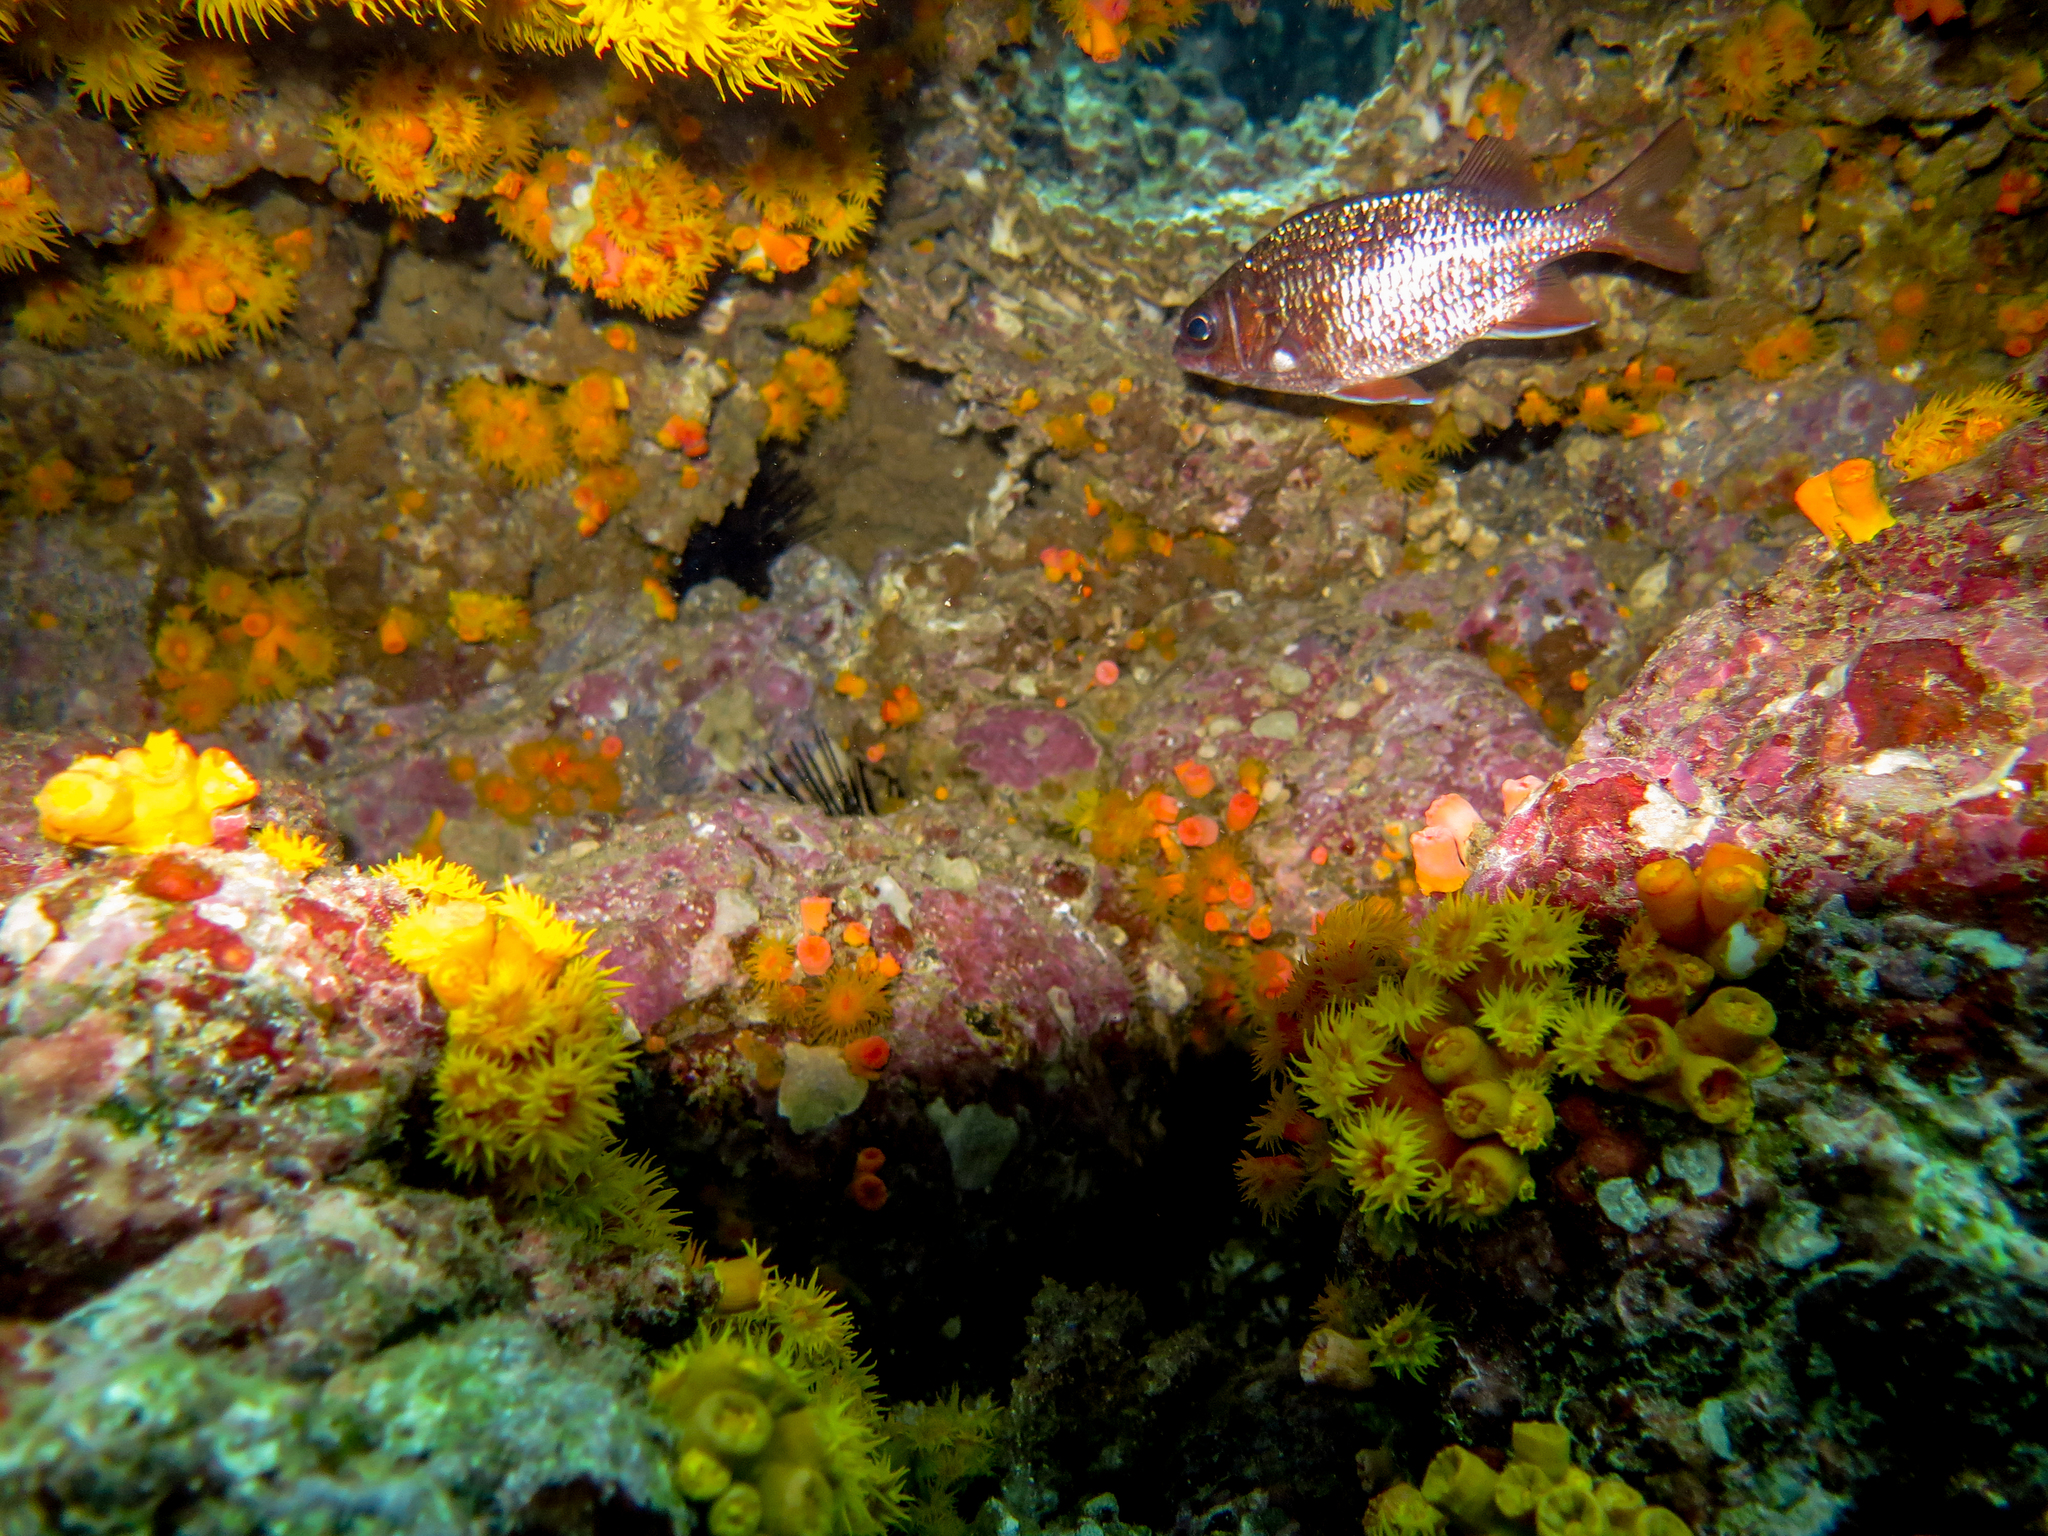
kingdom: Animalia
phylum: Chordata
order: Beryciformes
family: Holocentridae
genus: Sargocentron
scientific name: Sargocentron suborbitale
